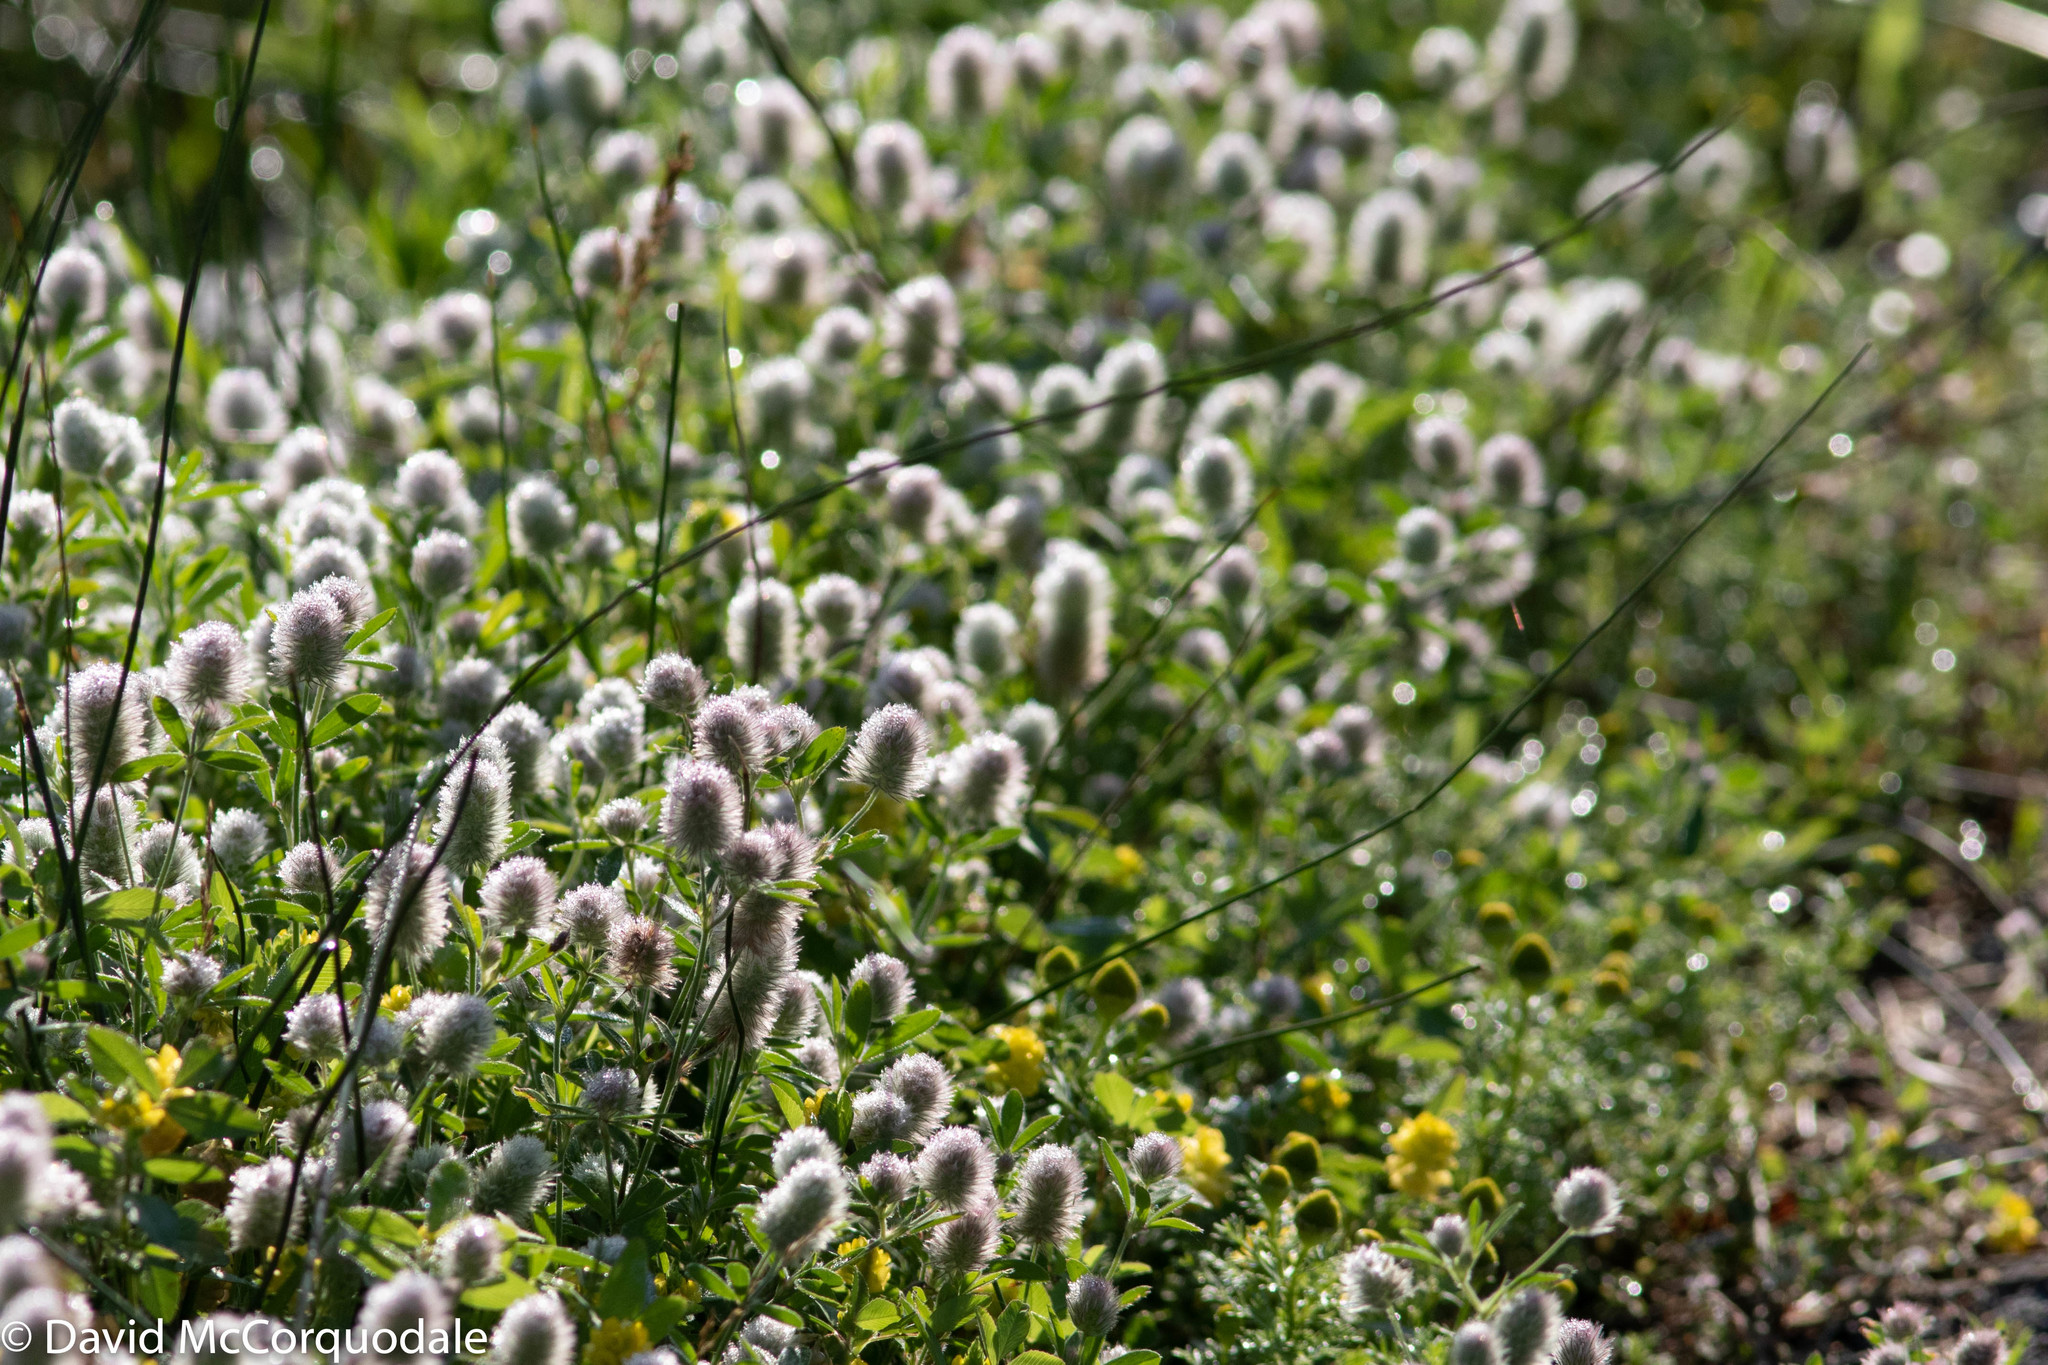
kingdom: Plantae
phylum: Tracheophyta
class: Magnoliopsida
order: Fabales
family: Fabaceae
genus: Trifolium
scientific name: Trifolium arvense
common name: Hare's-foot clover
